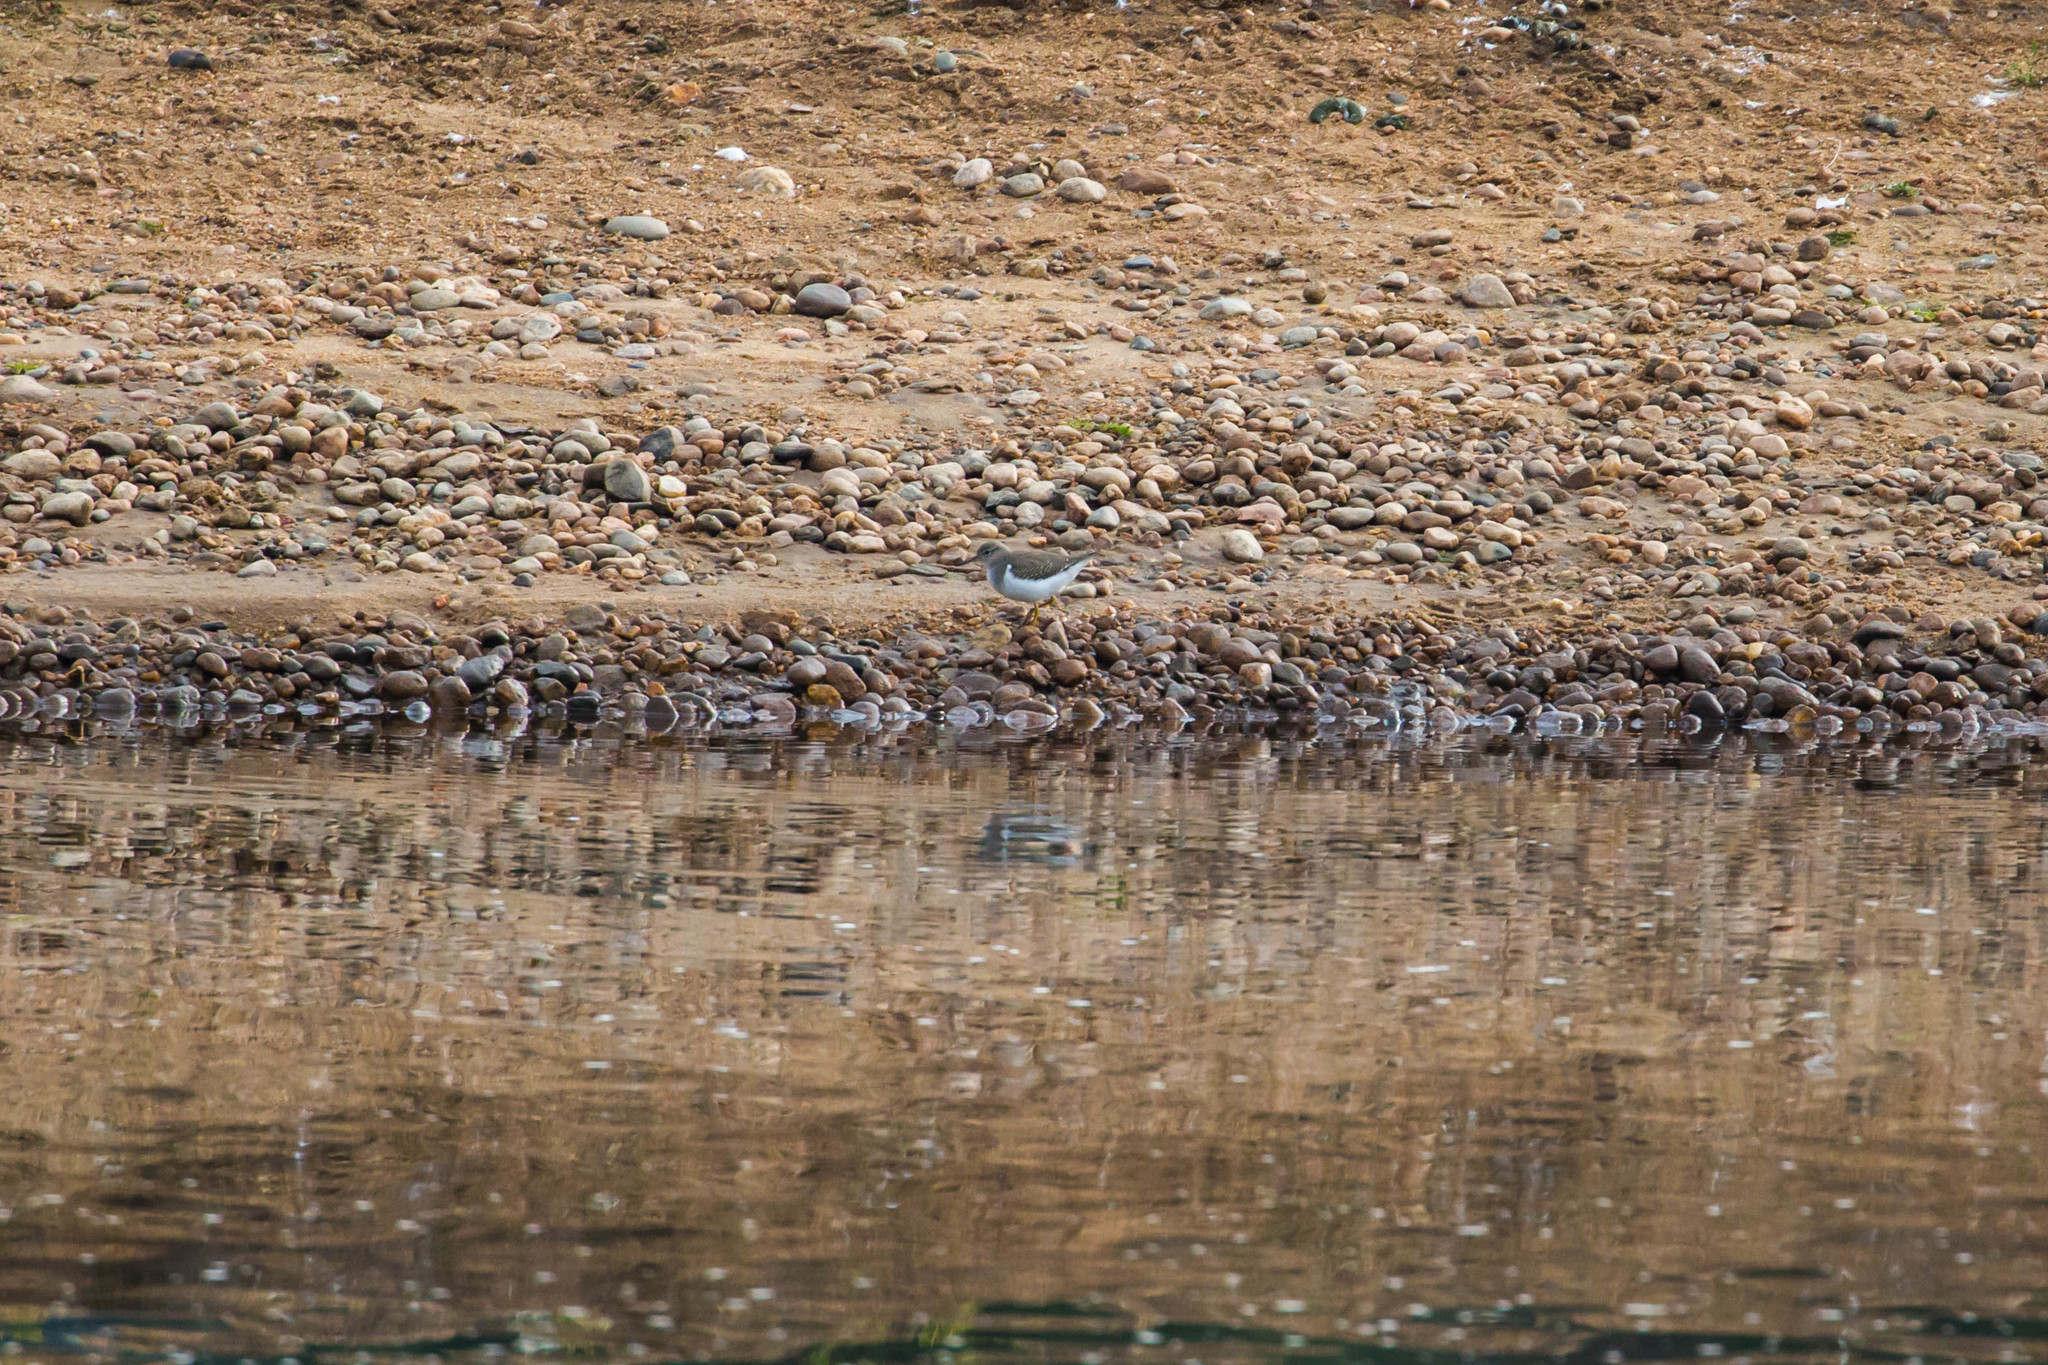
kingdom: Animalia
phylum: Chordata
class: Aves
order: Charadriiformes
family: Scolopacidae
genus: Actitis
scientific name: Actitis macularius
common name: Spotted sandpiper
